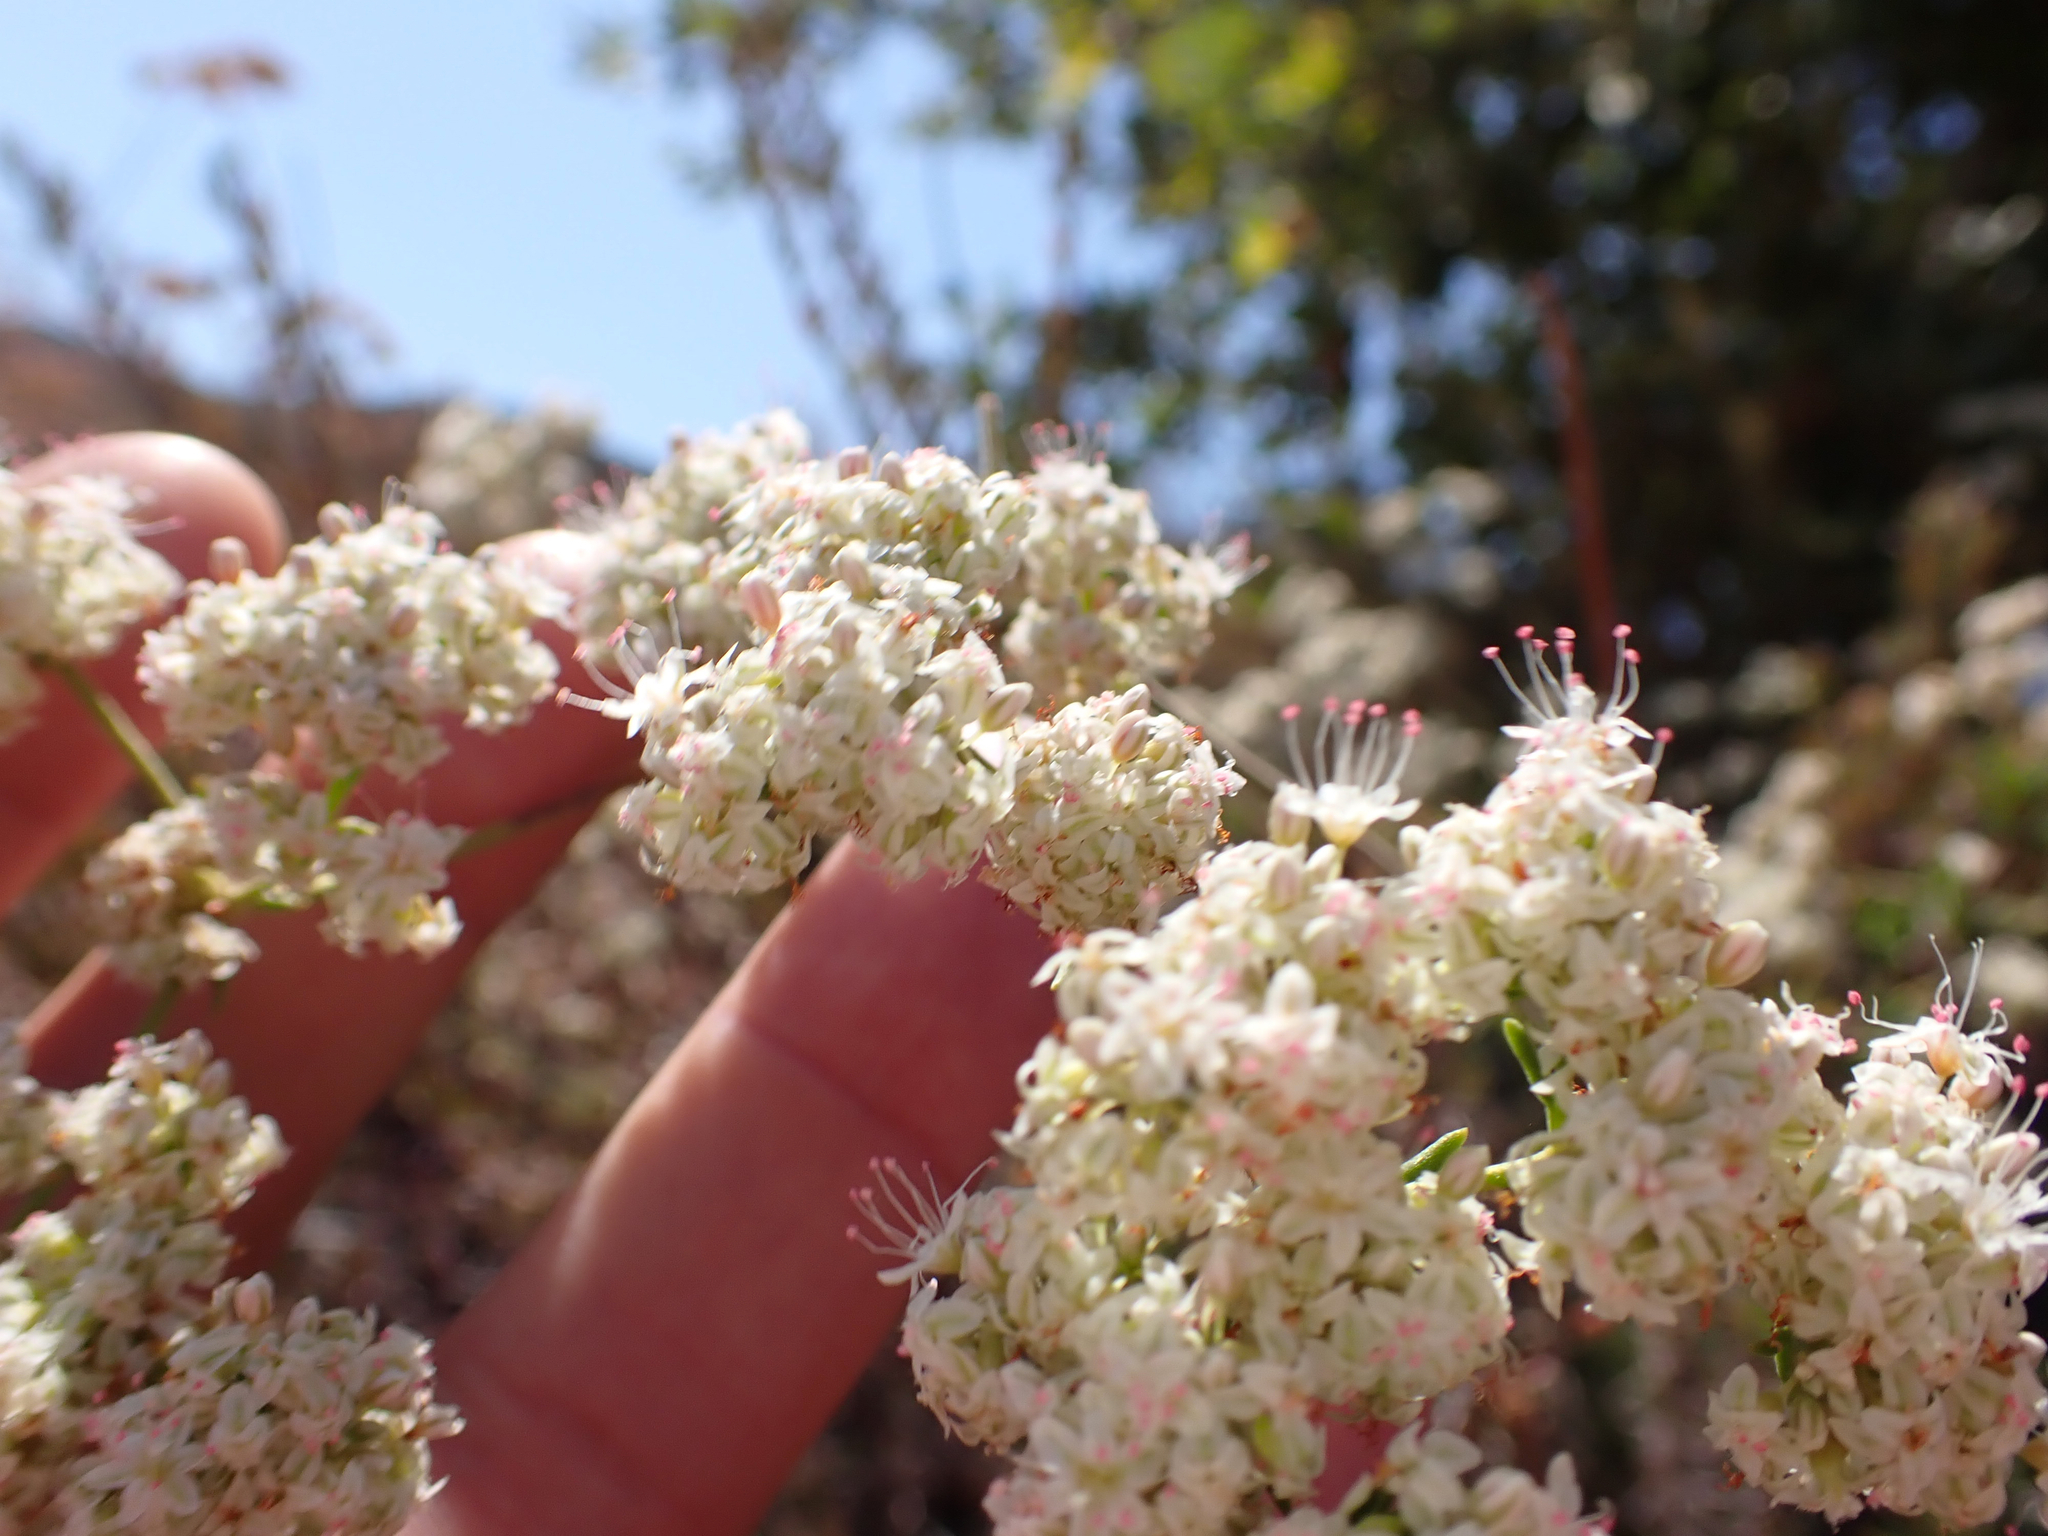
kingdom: Plantae
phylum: Tracheophyta
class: Magnoliopsida
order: Caryophyllales
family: Polygonaceae
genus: Eriogonum
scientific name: Eriogonum fasciculatum
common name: California wild buckwheat
